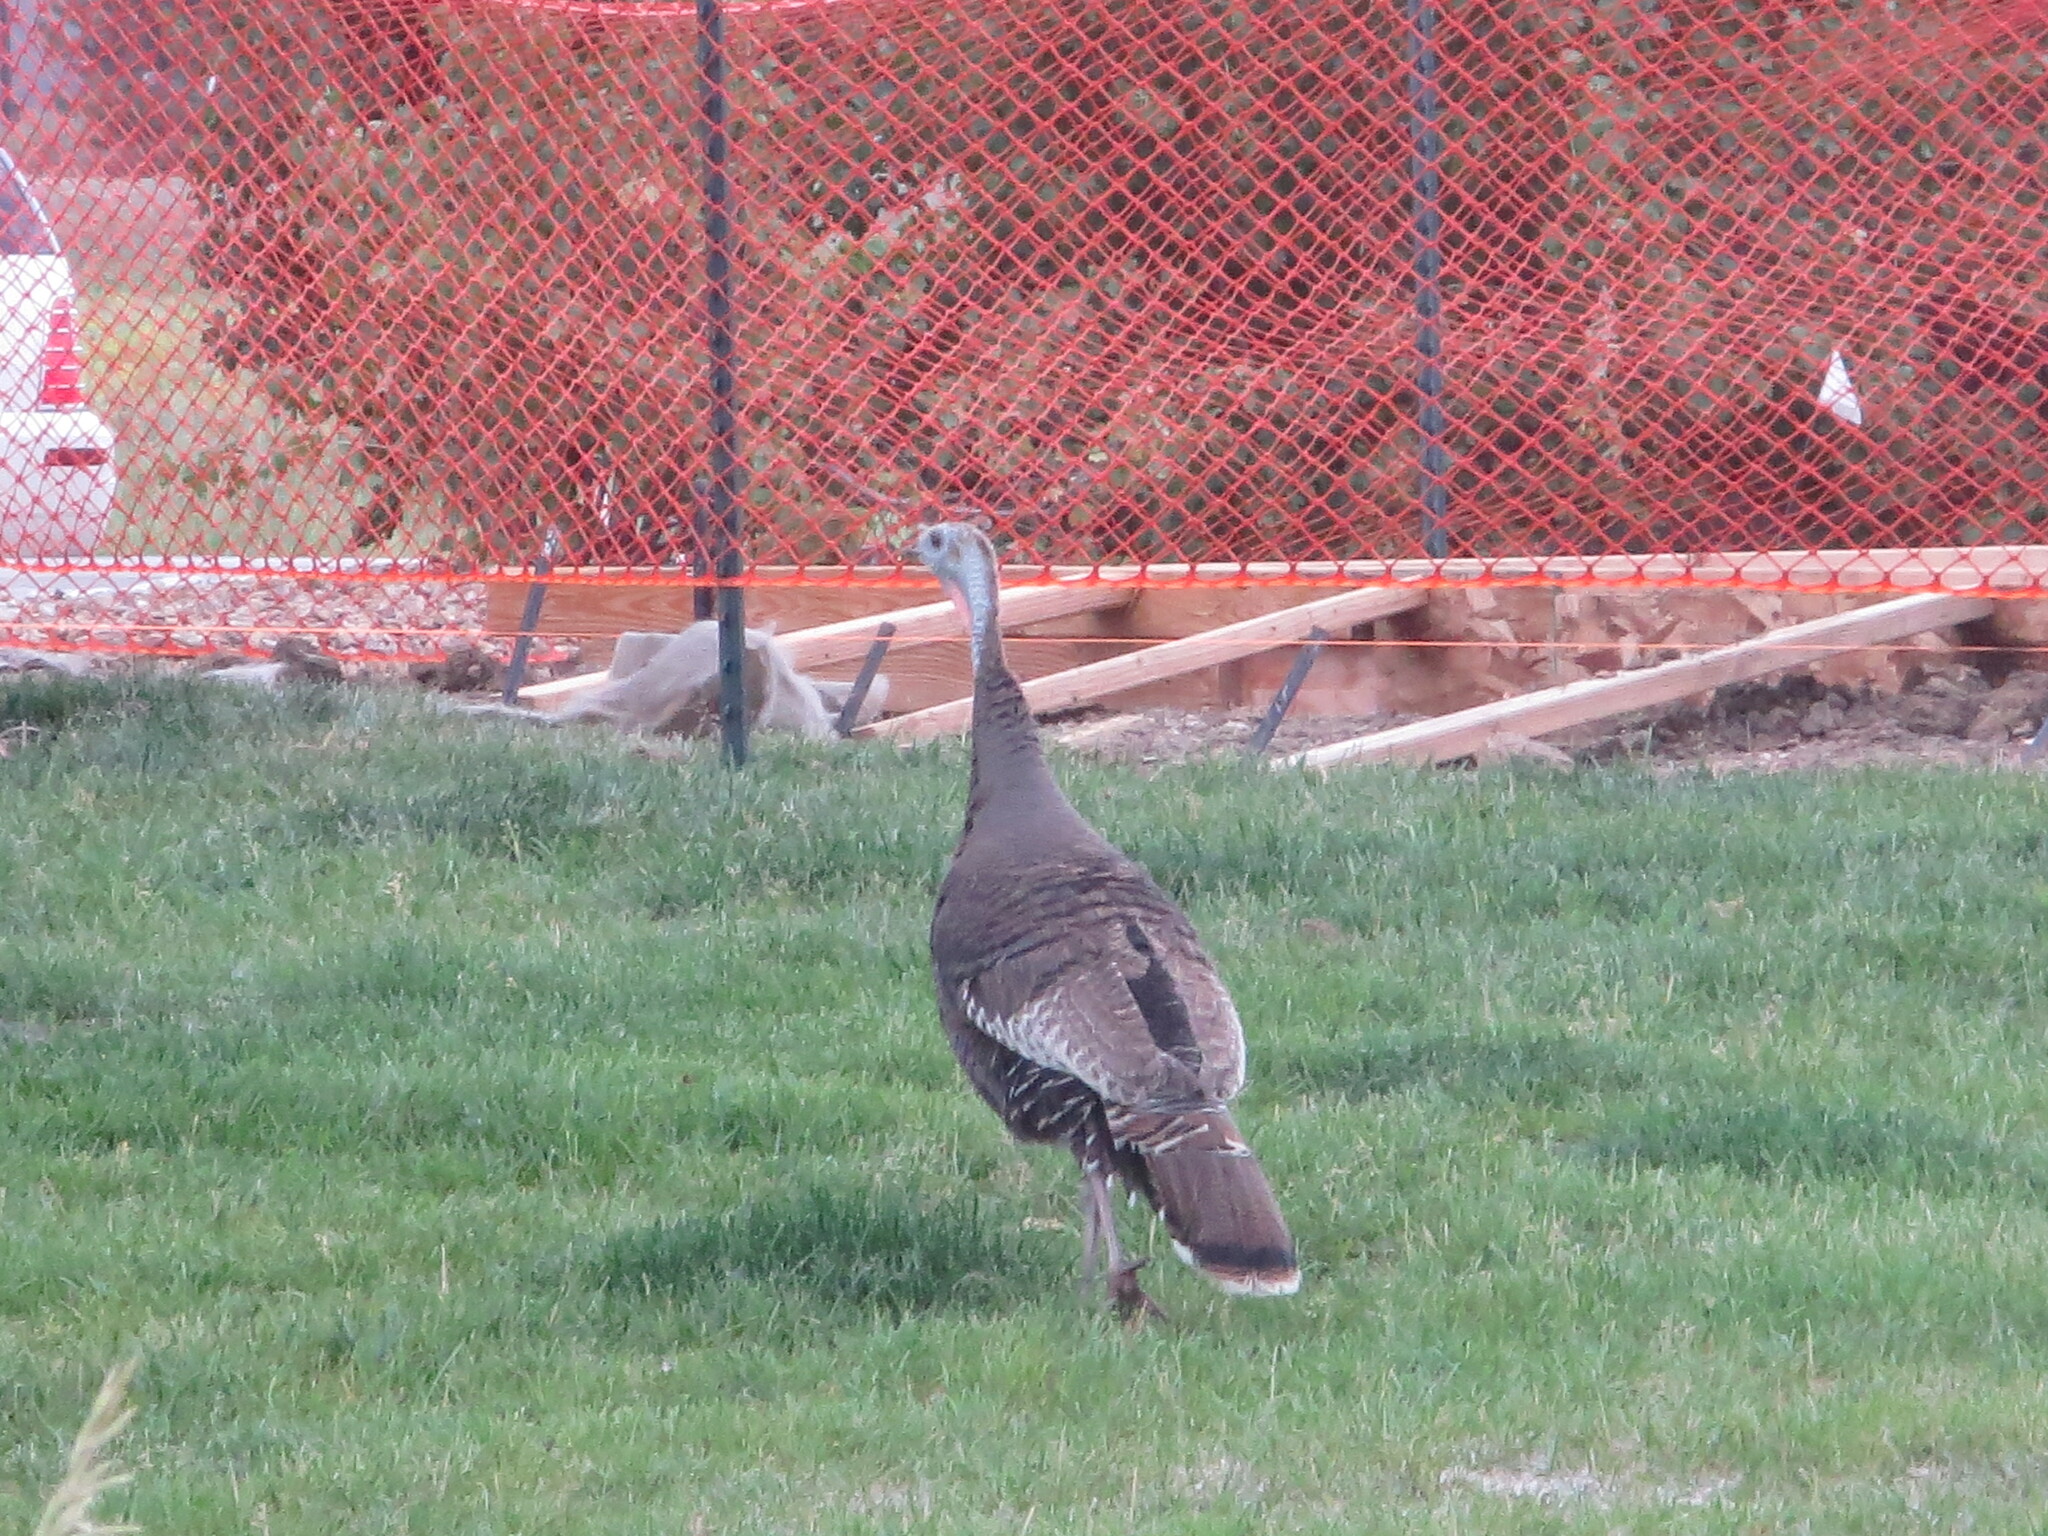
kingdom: Animalia
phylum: Chordata
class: Aves
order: Galliformes
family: Phasianidae
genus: Meleagris
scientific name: Meleagris gallopavo
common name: Wild turkey
